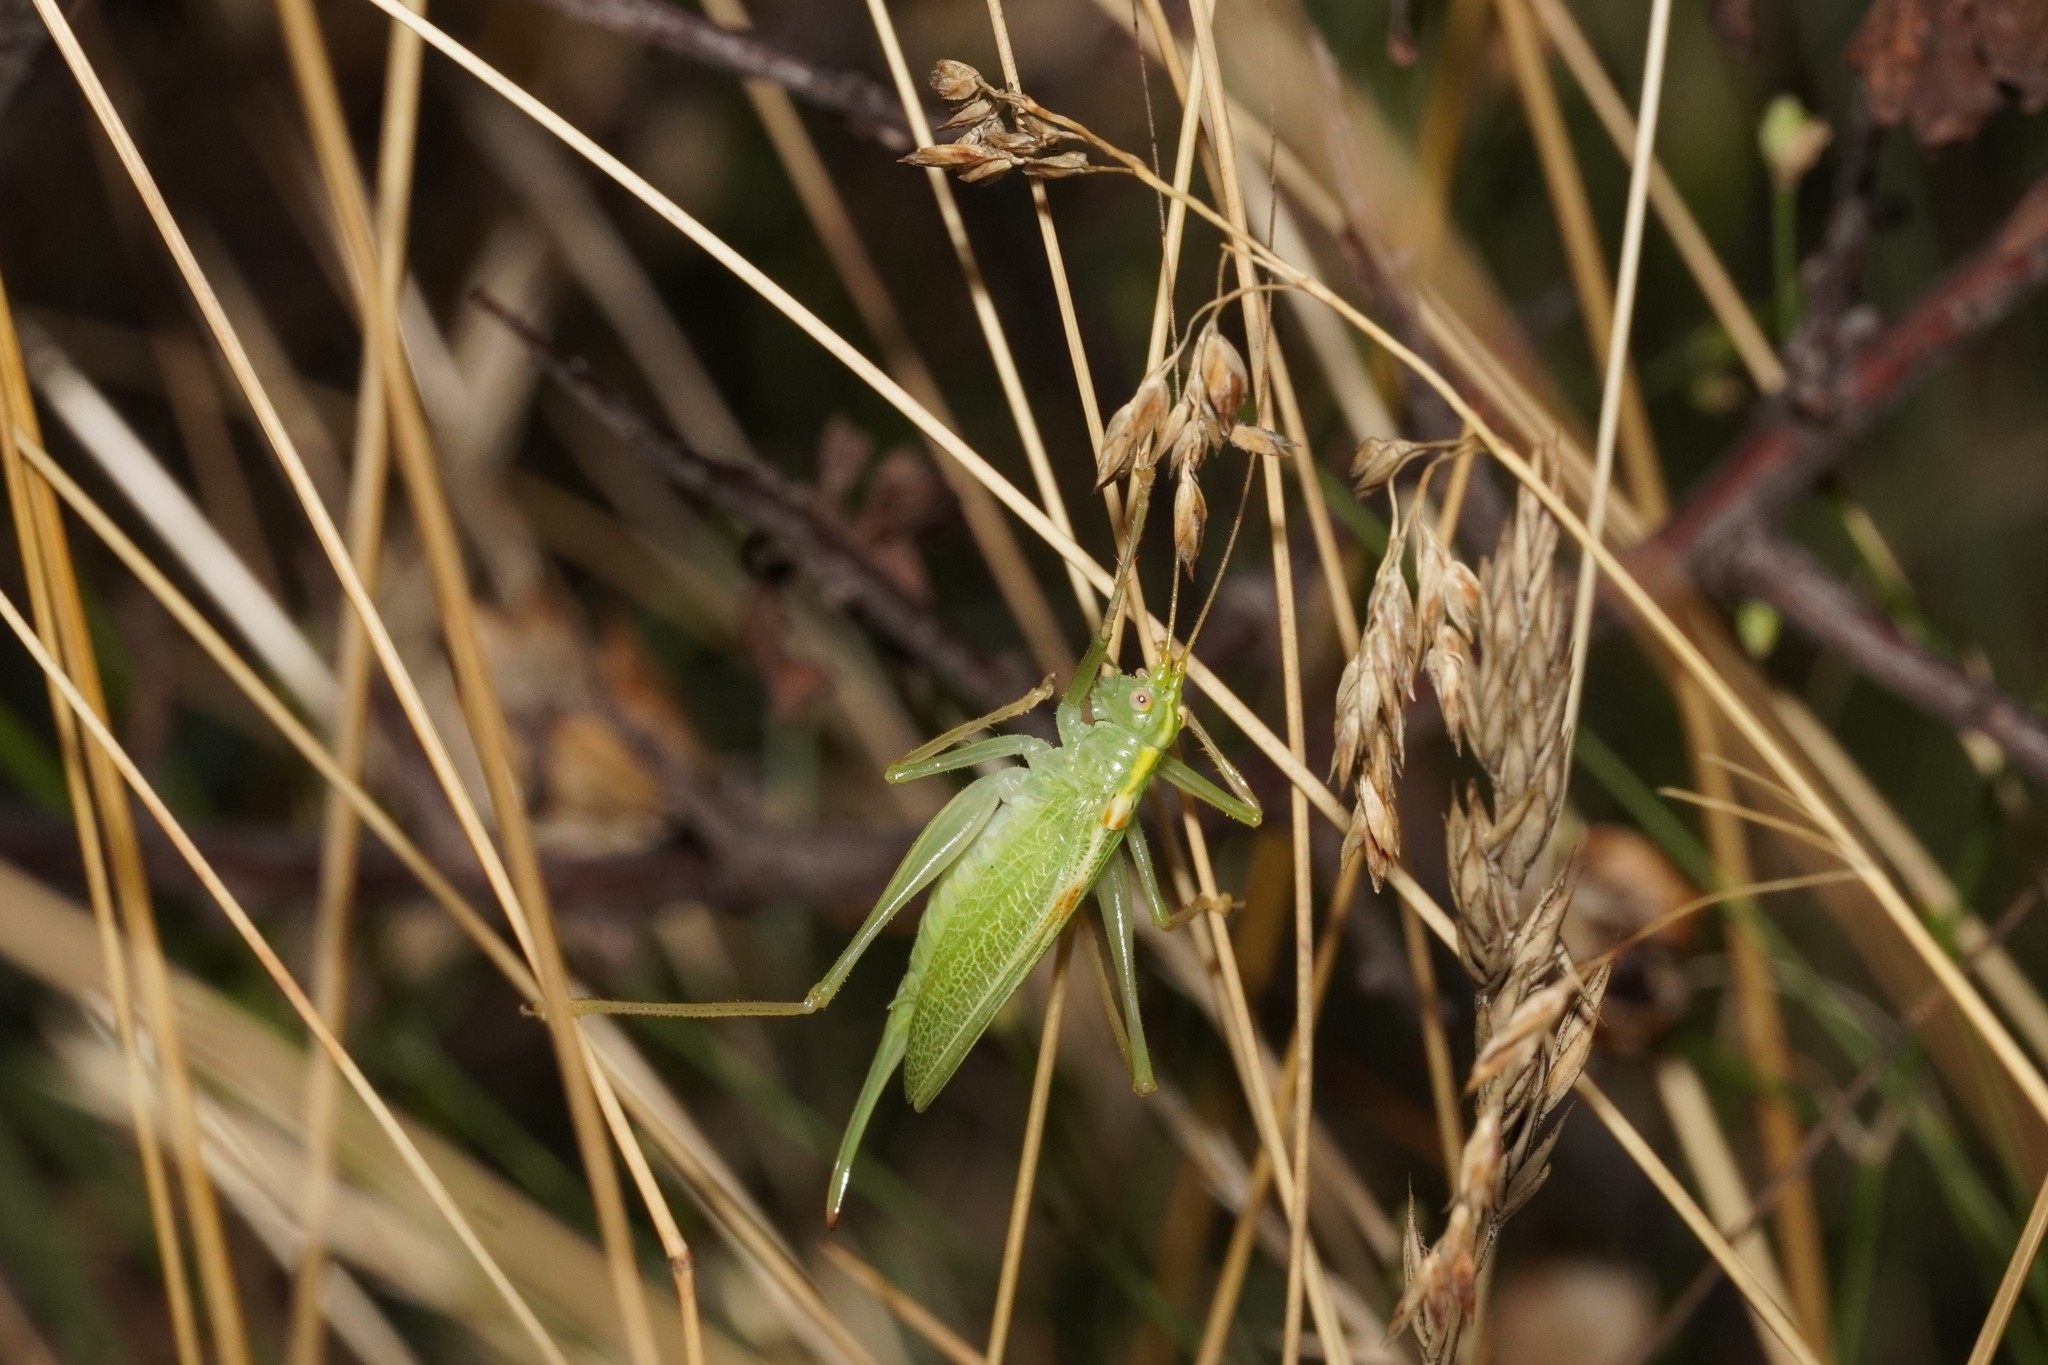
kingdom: Animalia
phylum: Arthropoda
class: Insecta
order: Orthoptera
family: Tettigoniidae
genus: Meconema
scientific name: Meconema thalassinum
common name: Oak bush-cricket
